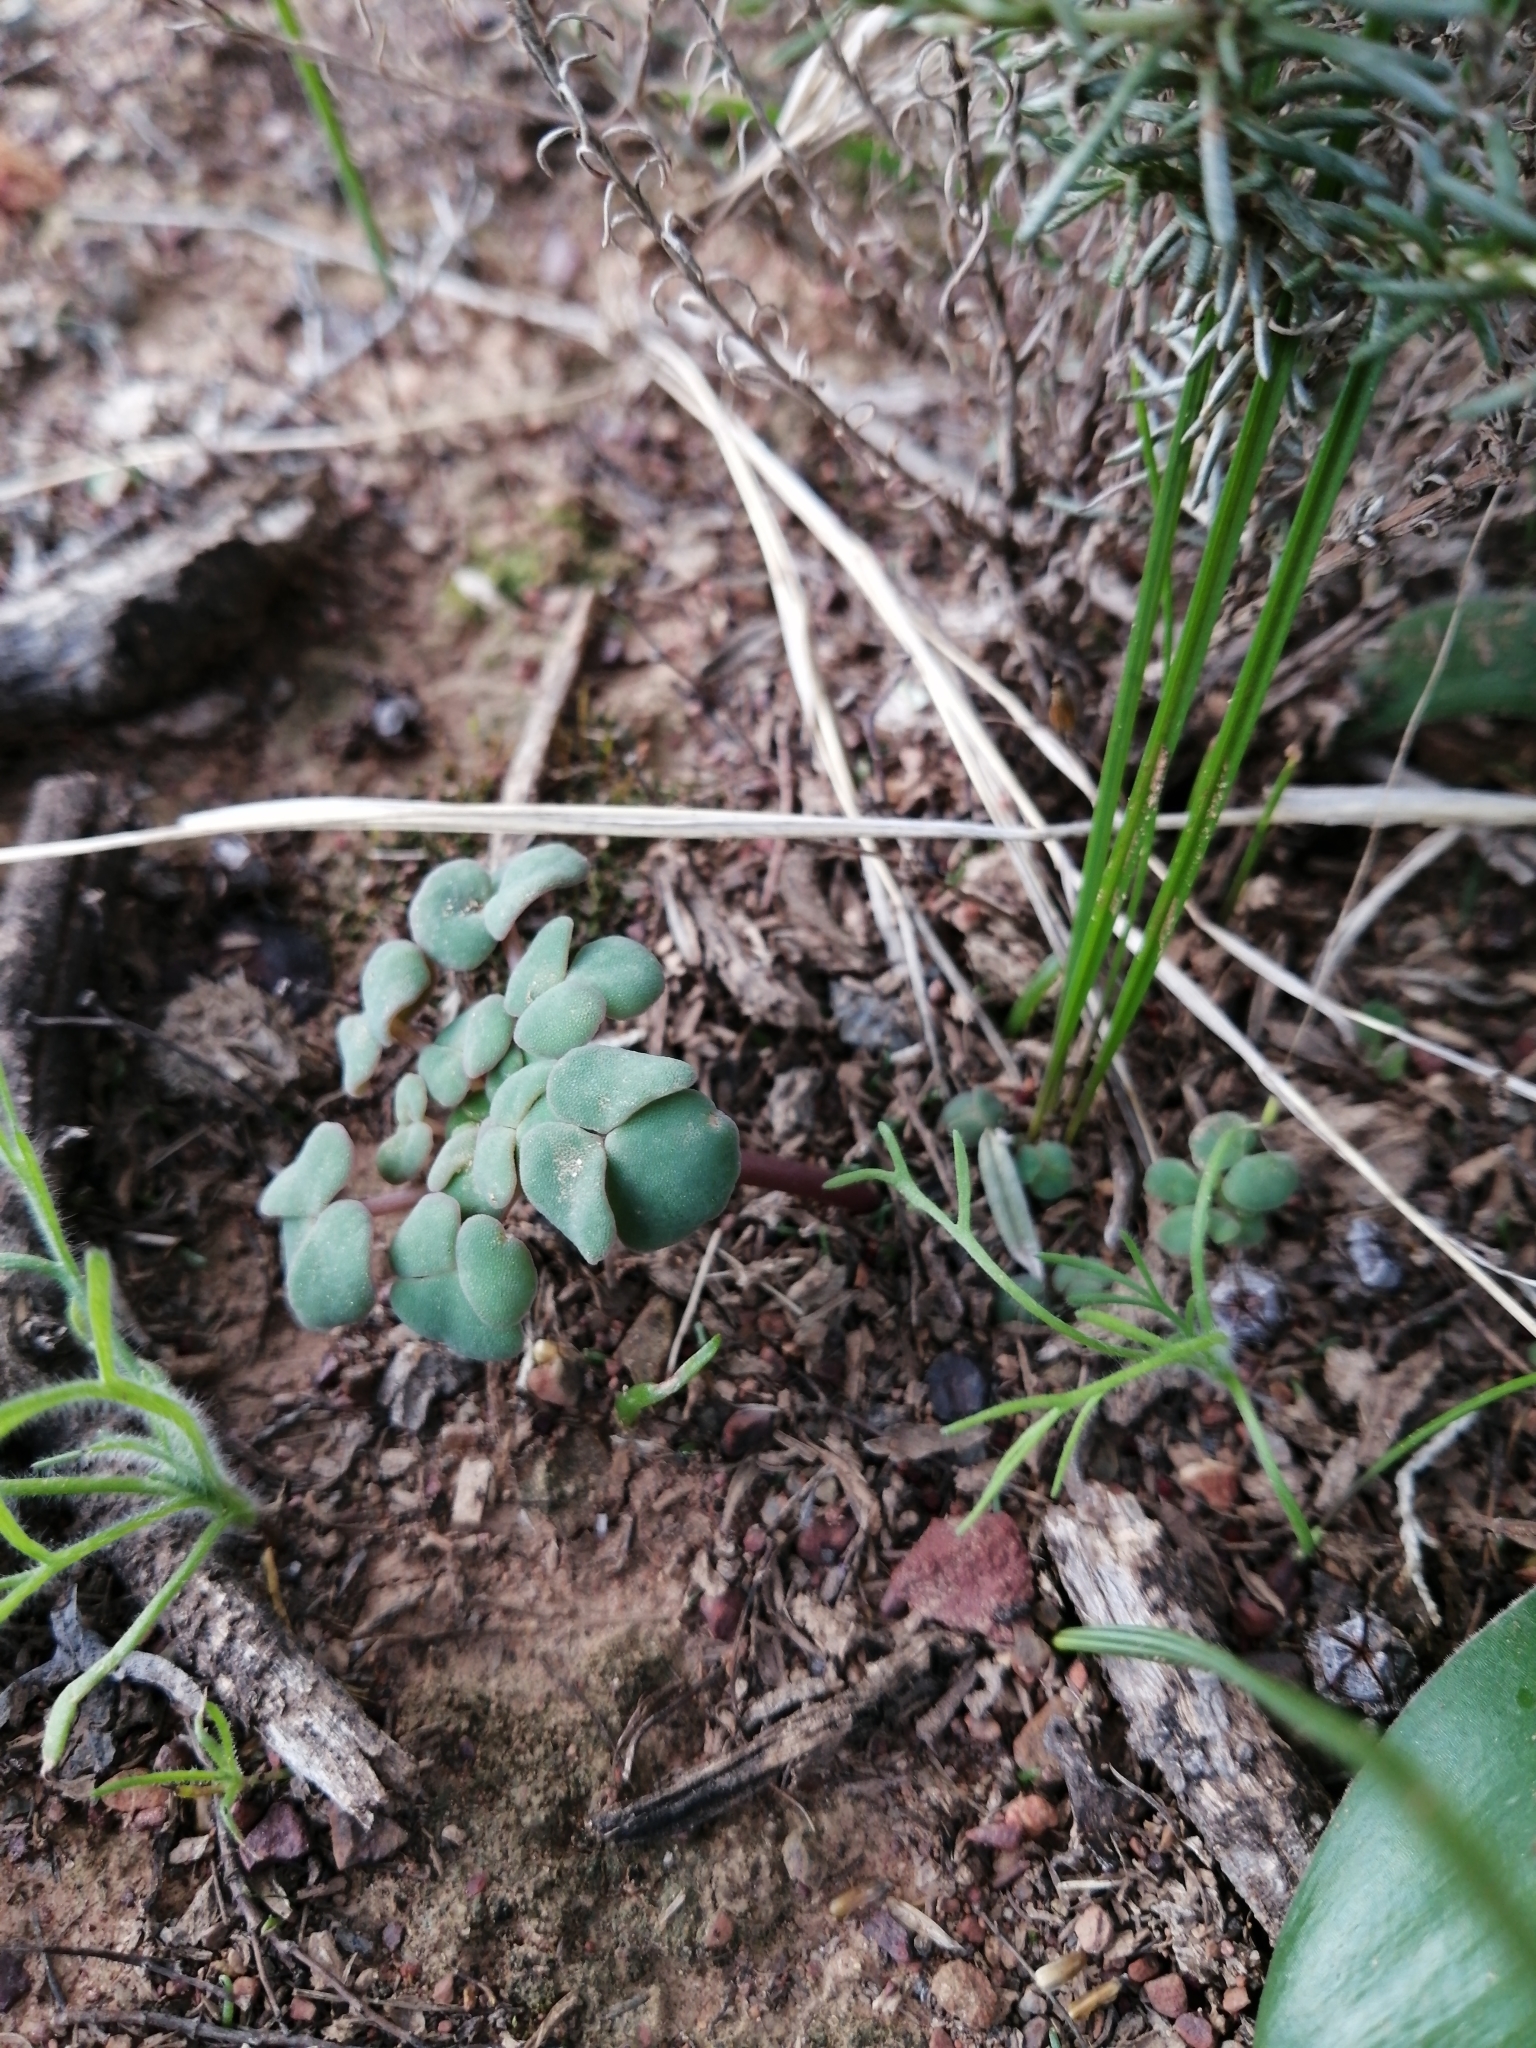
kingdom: Plantae
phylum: Tracheophyta
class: Magnoliopsida
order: Oxalidales
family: Oxalidaceae
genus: Oxalis
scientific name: Oxalis convexula
